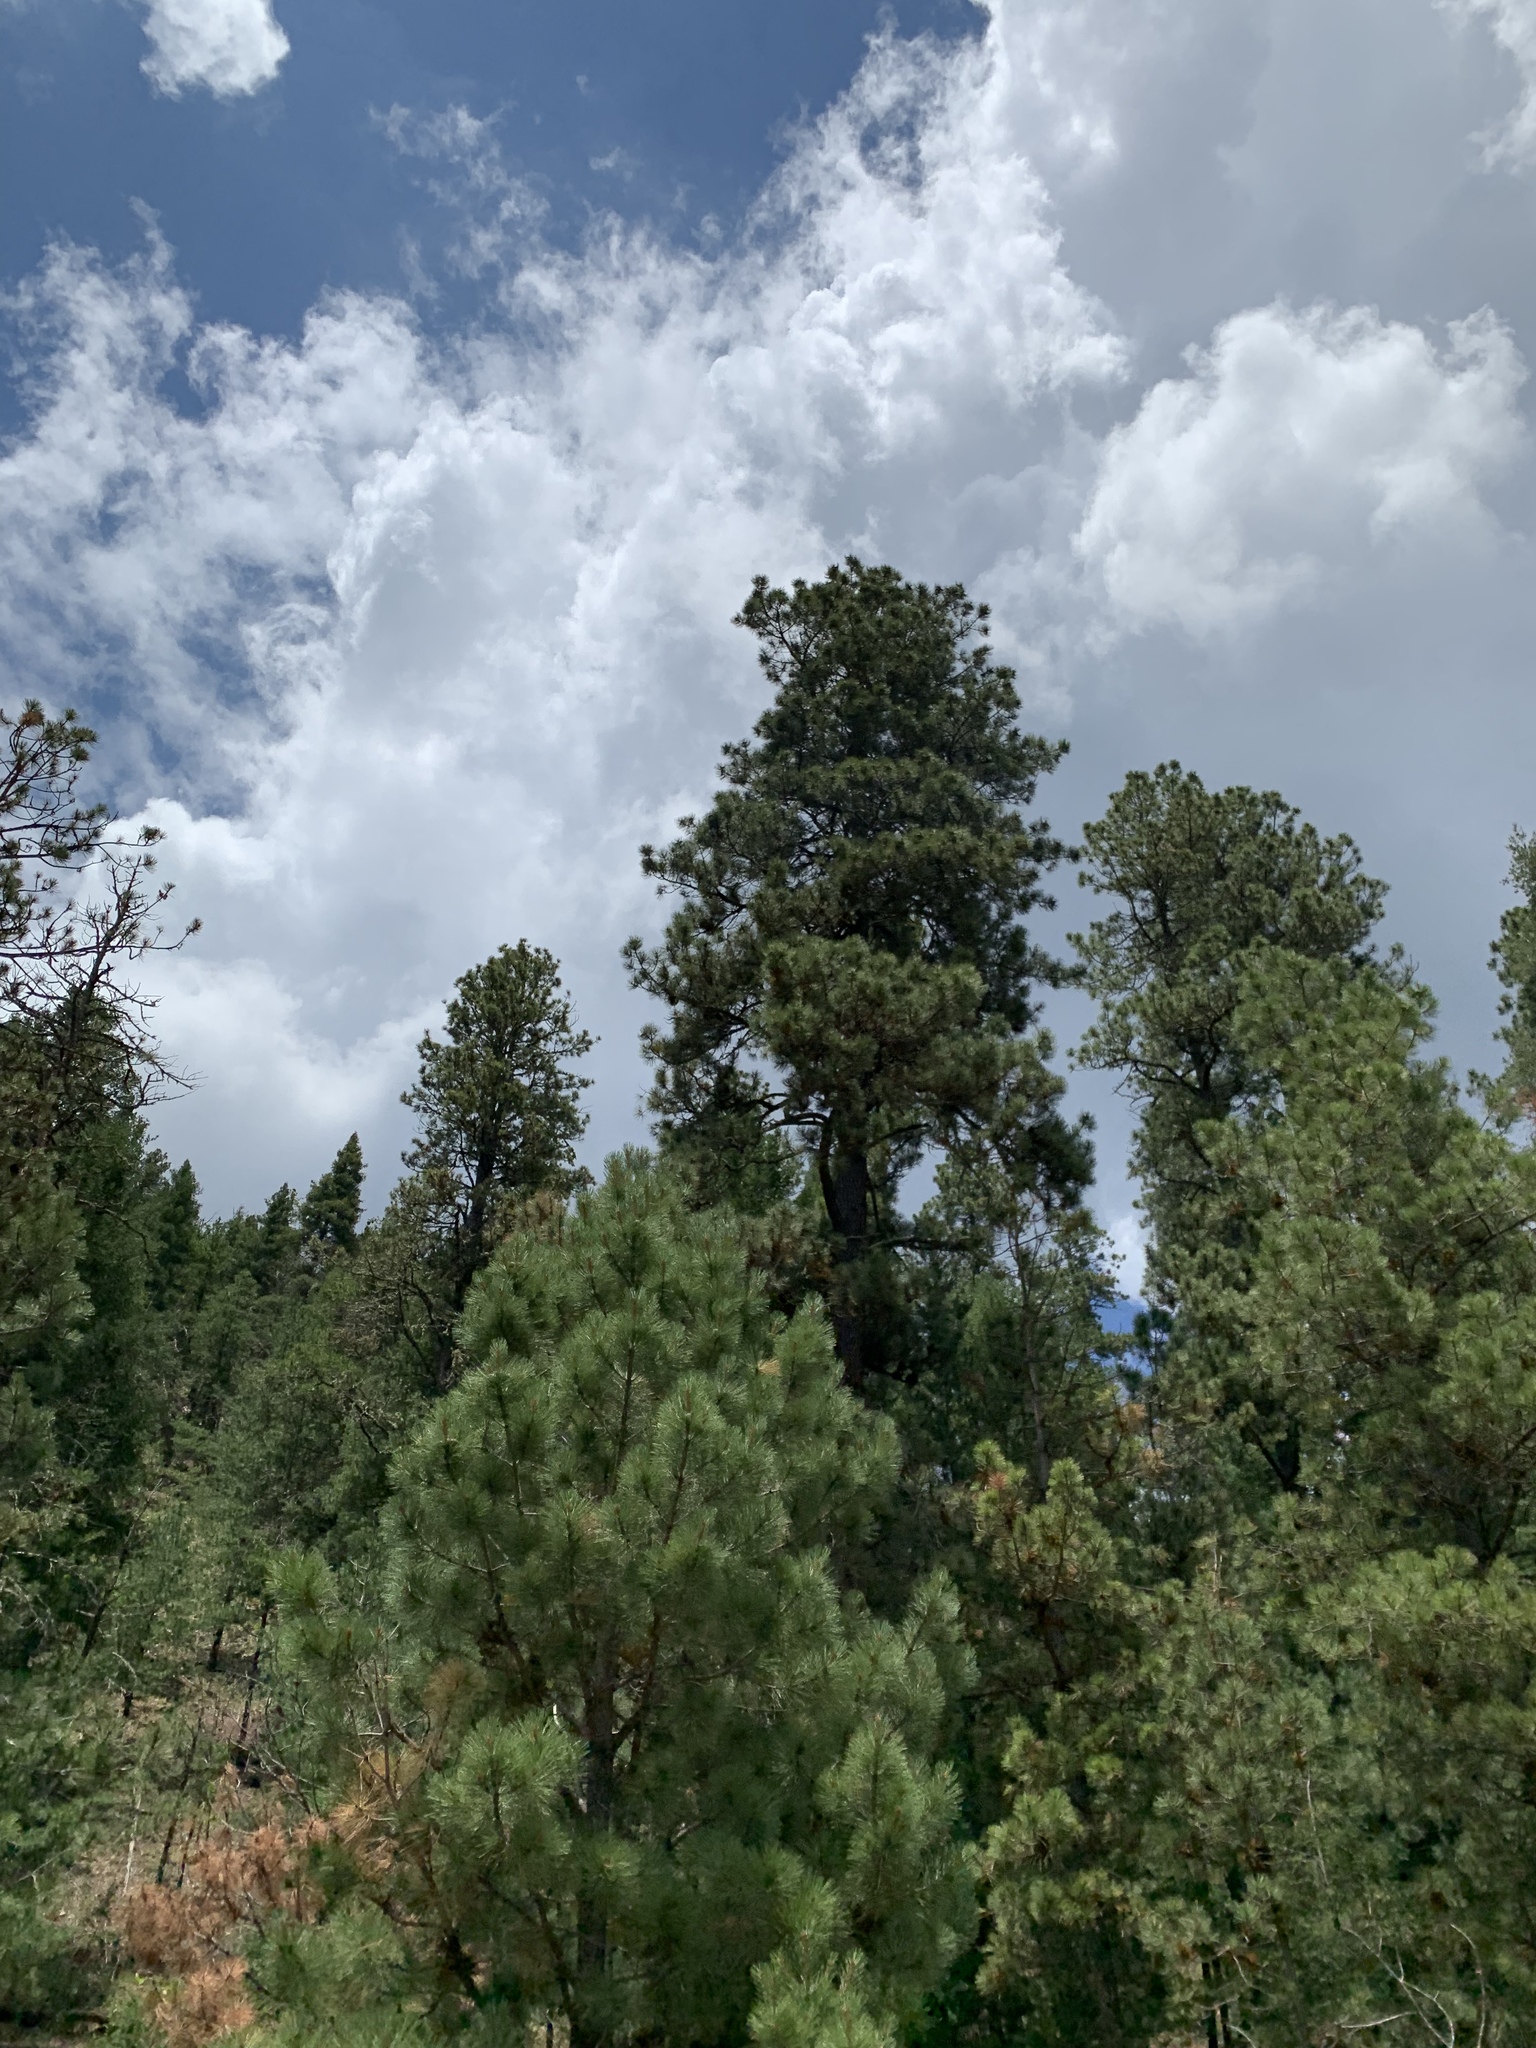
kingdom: Plantae
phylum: Tracheophyta
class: Pinopsida
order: Pinales
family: Pinaceae
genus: Pinus
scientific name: Pinus ponderosa
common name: Western yellow-pine
